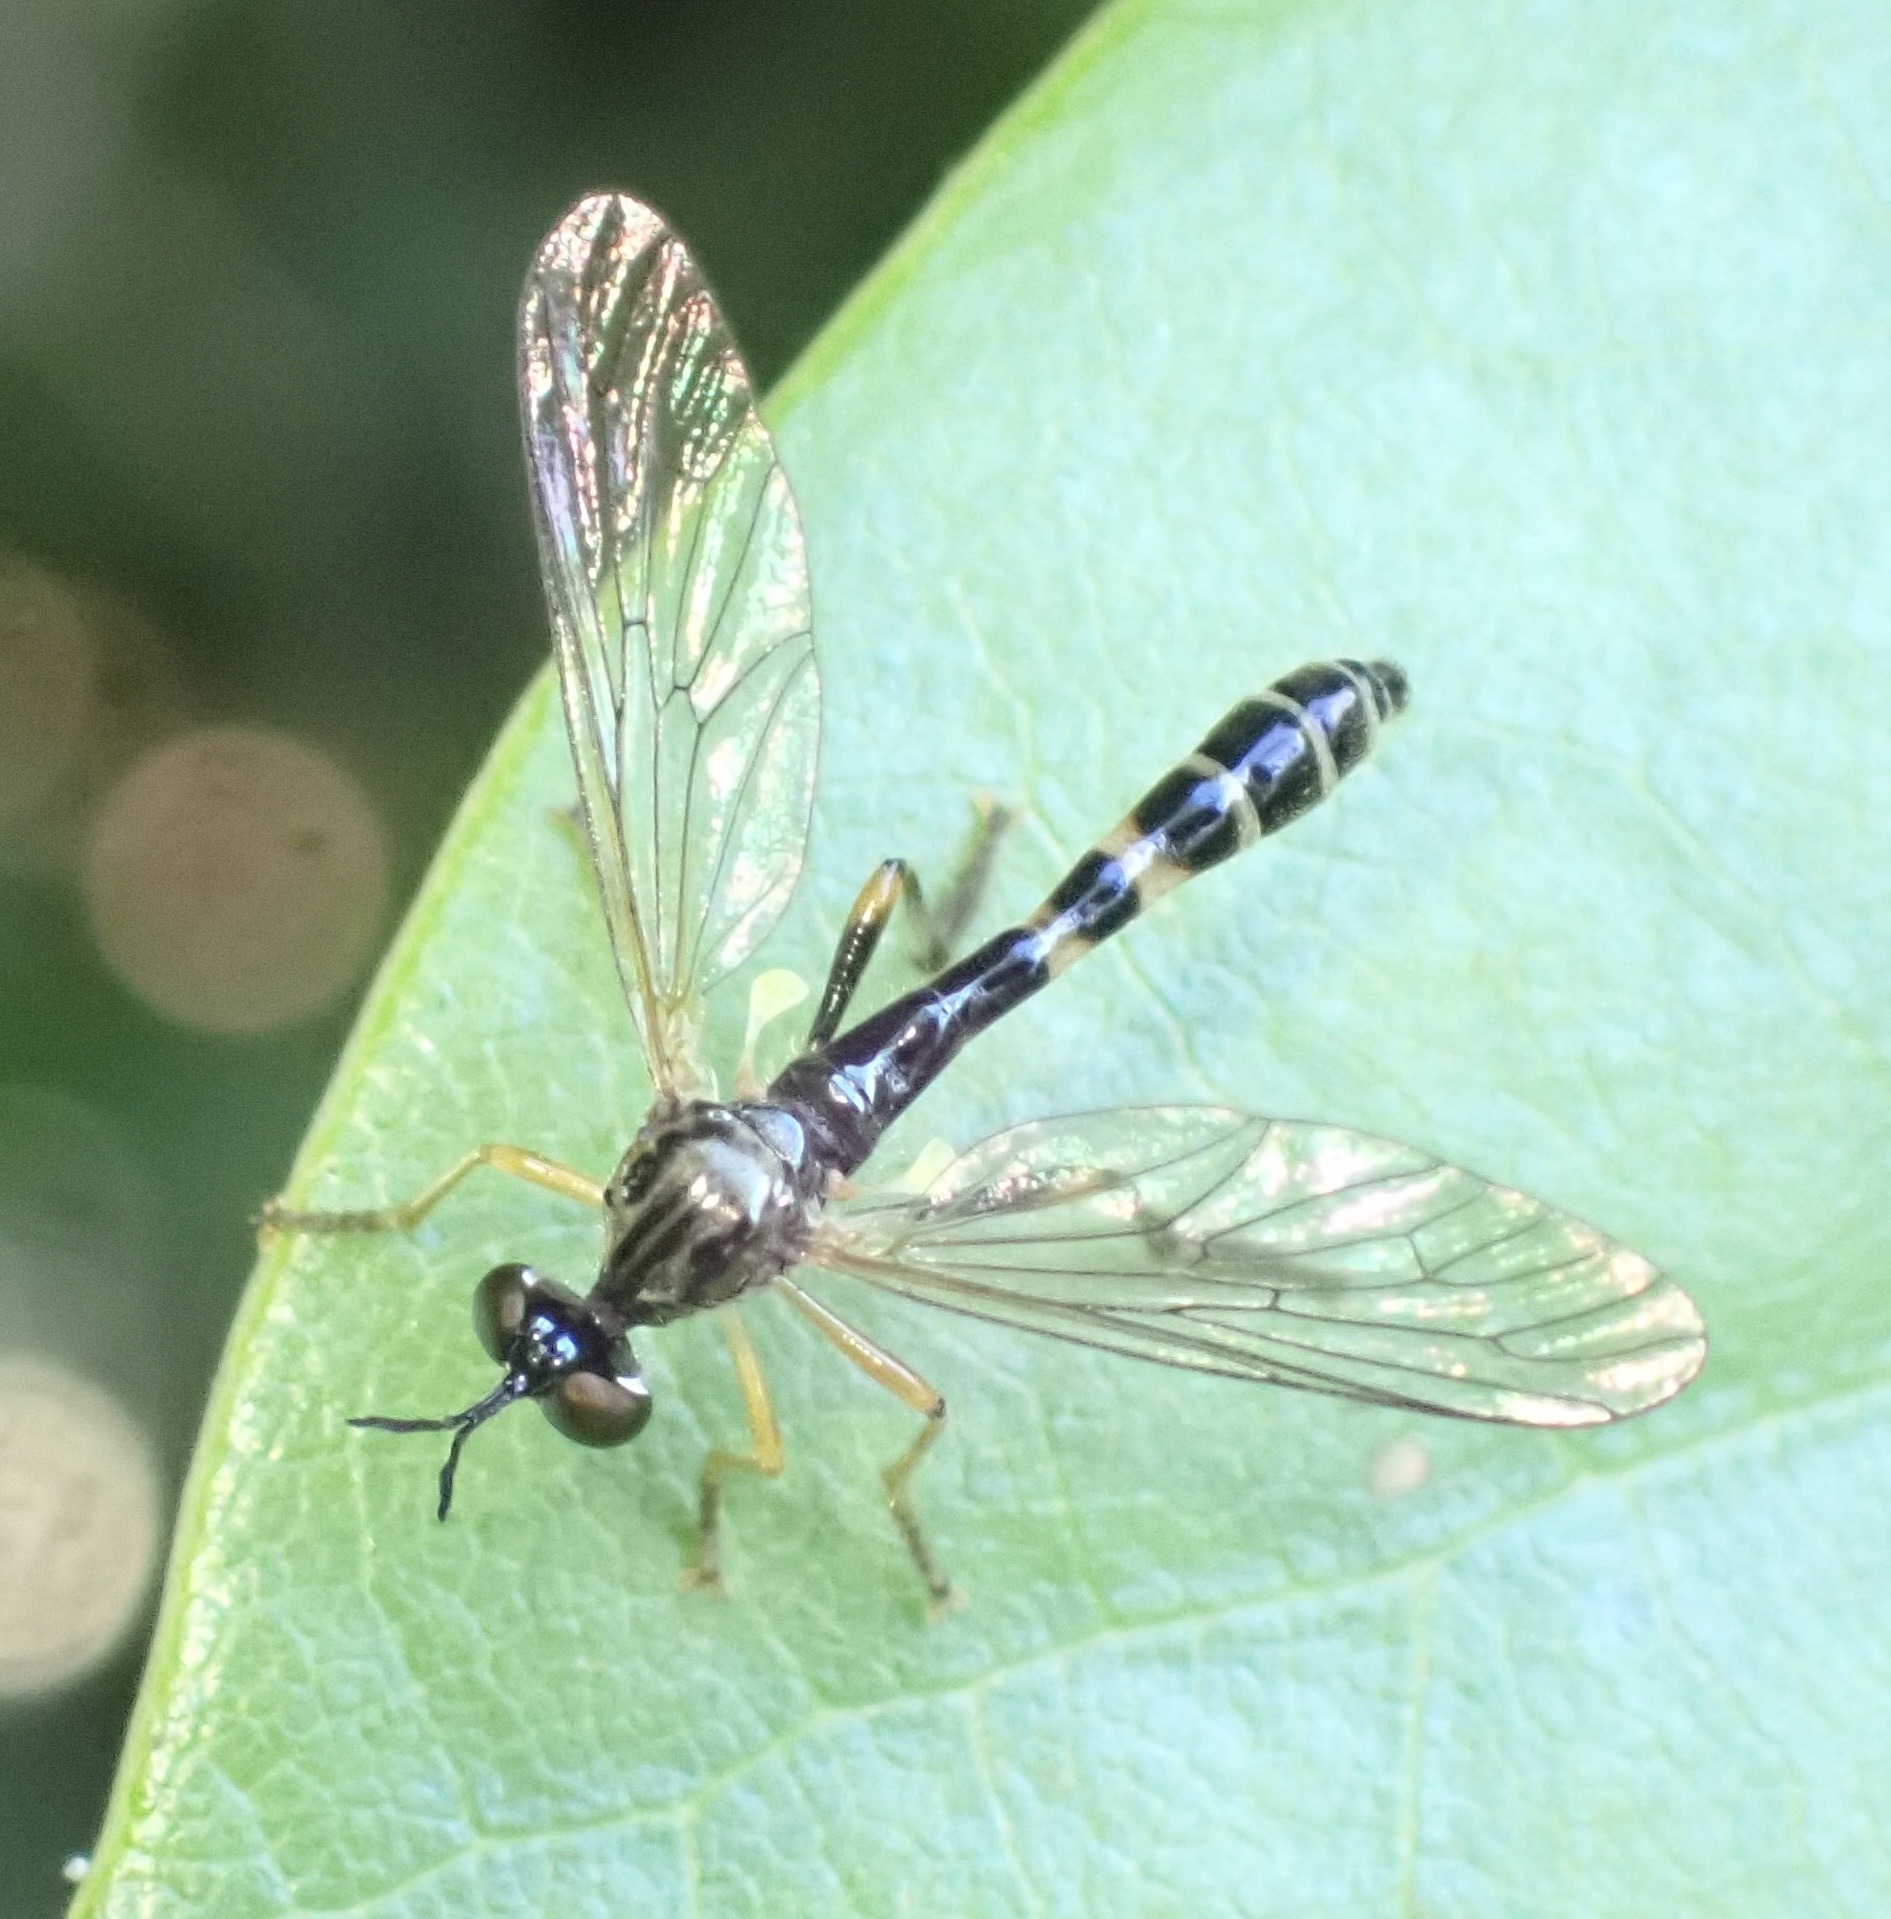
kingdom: Animalia
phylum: Arthropoda
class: Insecta
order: Diptera
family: Asilidae
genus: Dioctria
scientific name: Dioctria linearis
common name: Small yellow-legged robberfly
